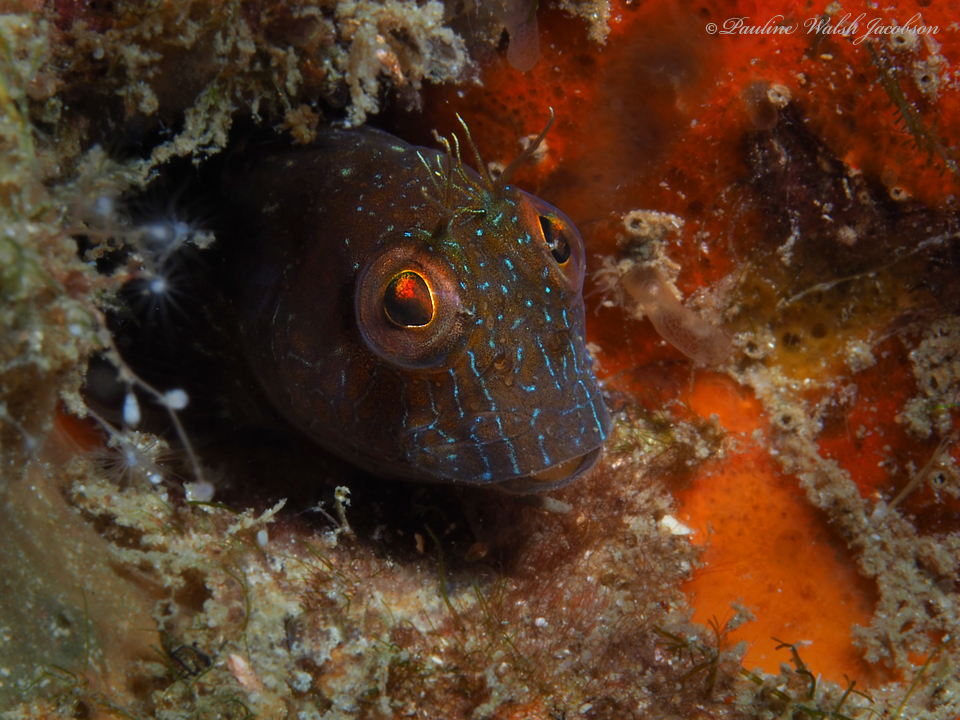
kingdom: Animalia
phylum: Chordata
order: Perciformes
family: Blenniidae
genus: Parablennius
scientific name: Parablennius marmoreus
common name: Seaweed blenny
